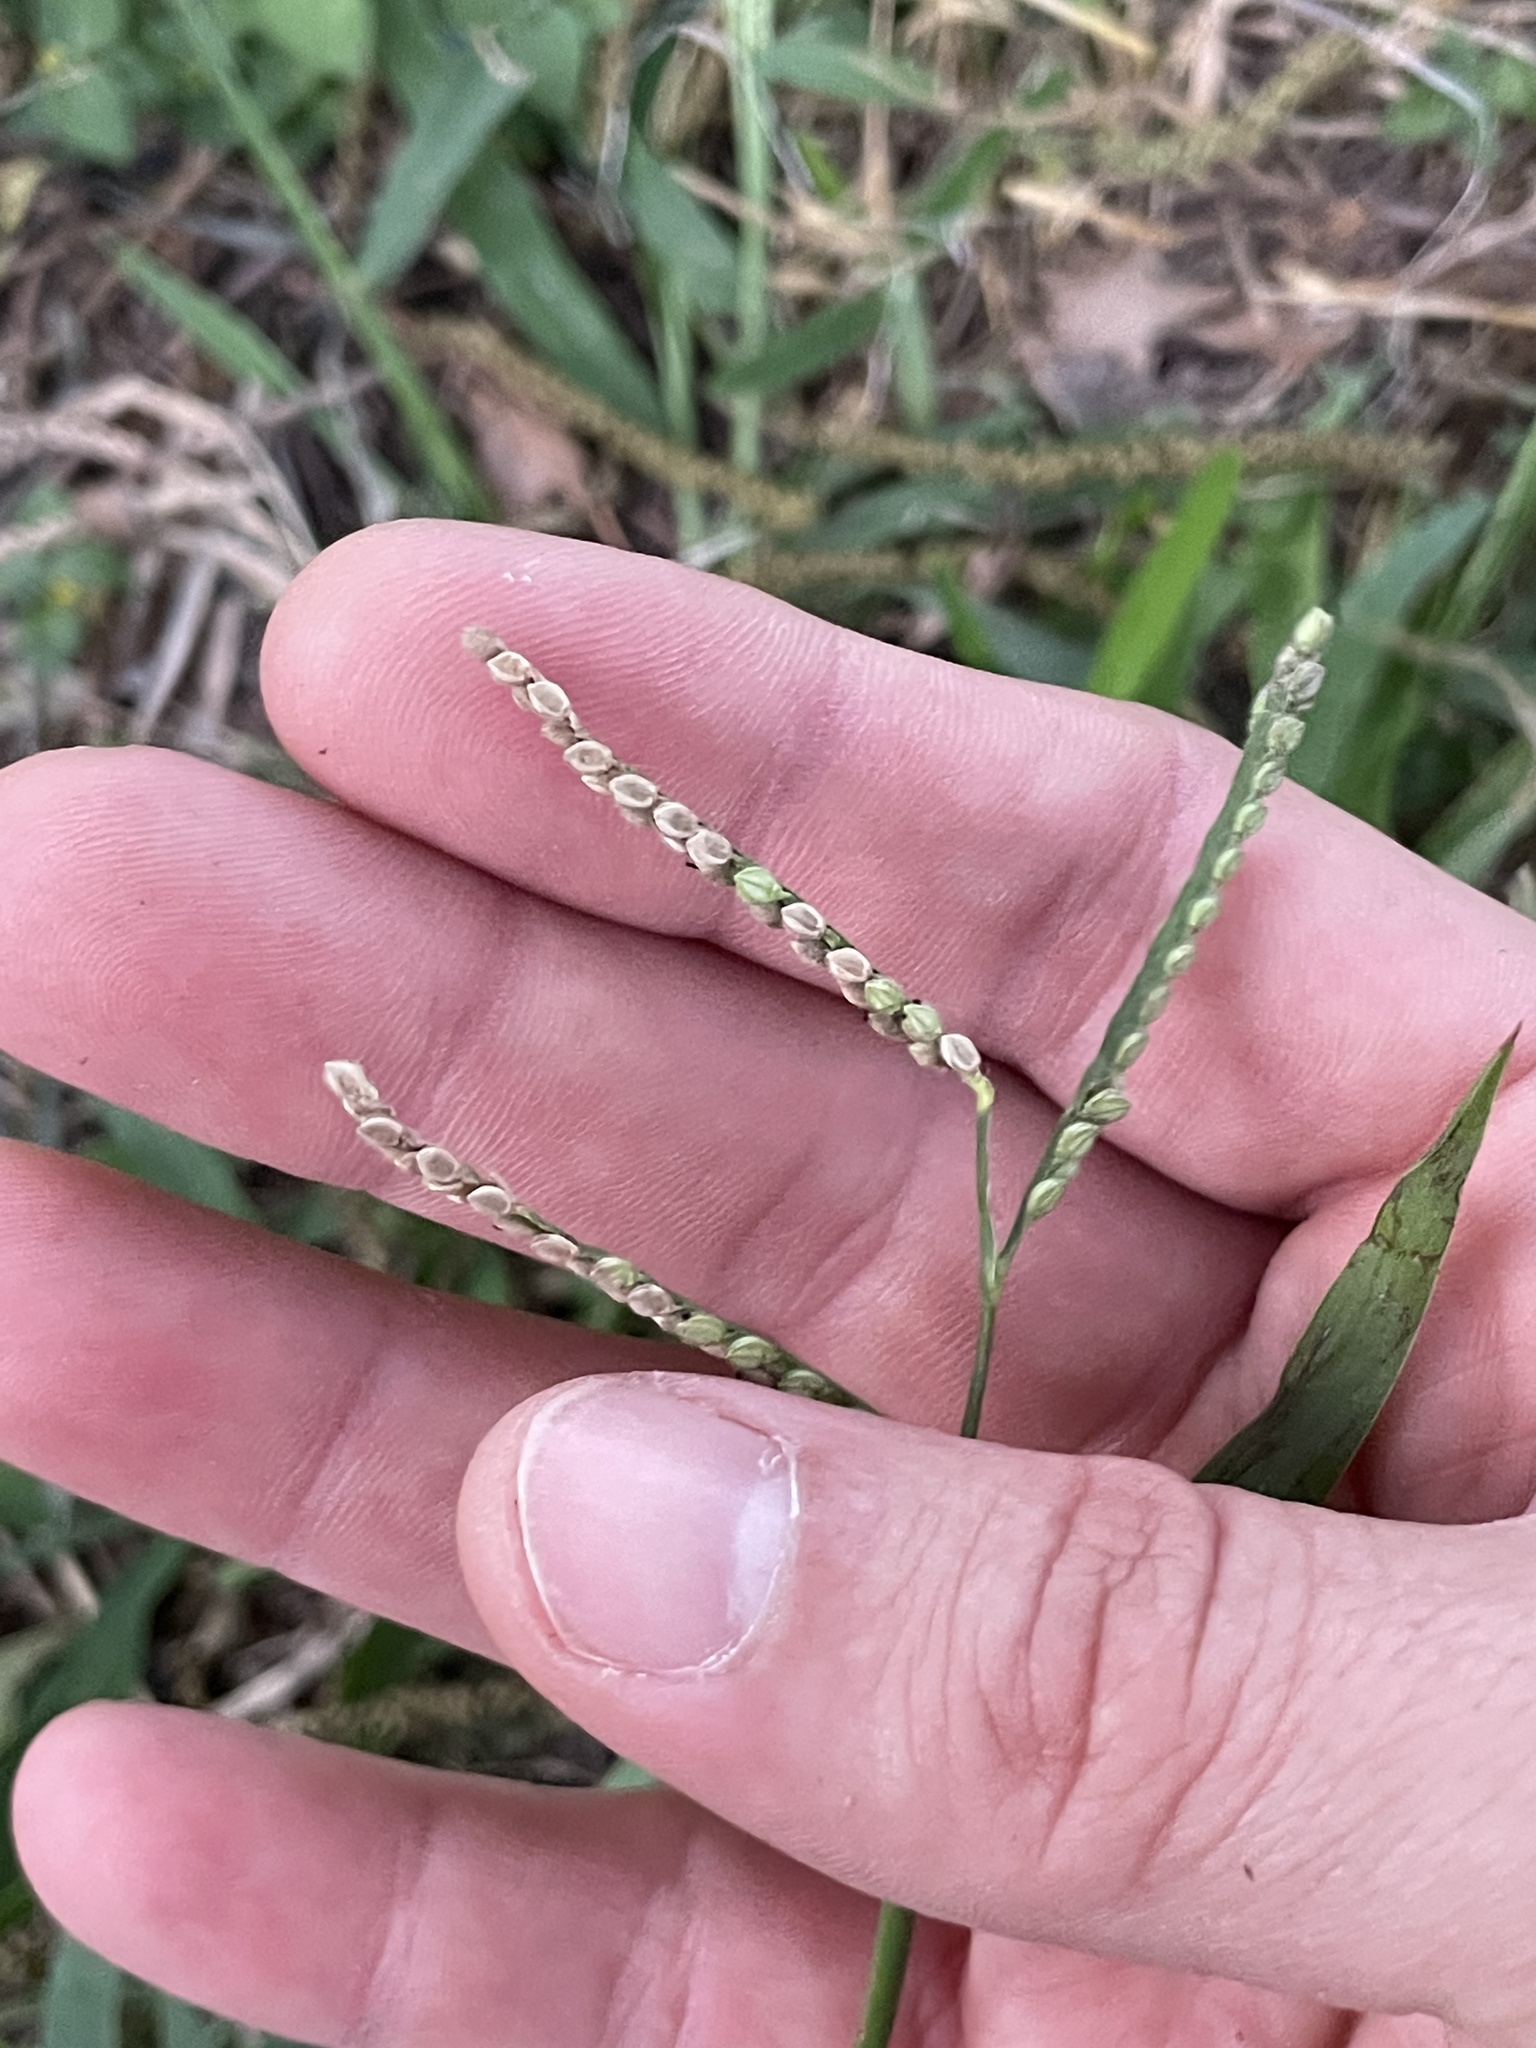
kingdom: Plantae
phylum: Tracheophyta
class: Liliopsida
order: Poales
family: Poaceae
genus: Paspalum
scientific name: Paspalum pubiflorum
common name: Hairy-seed paspalum
